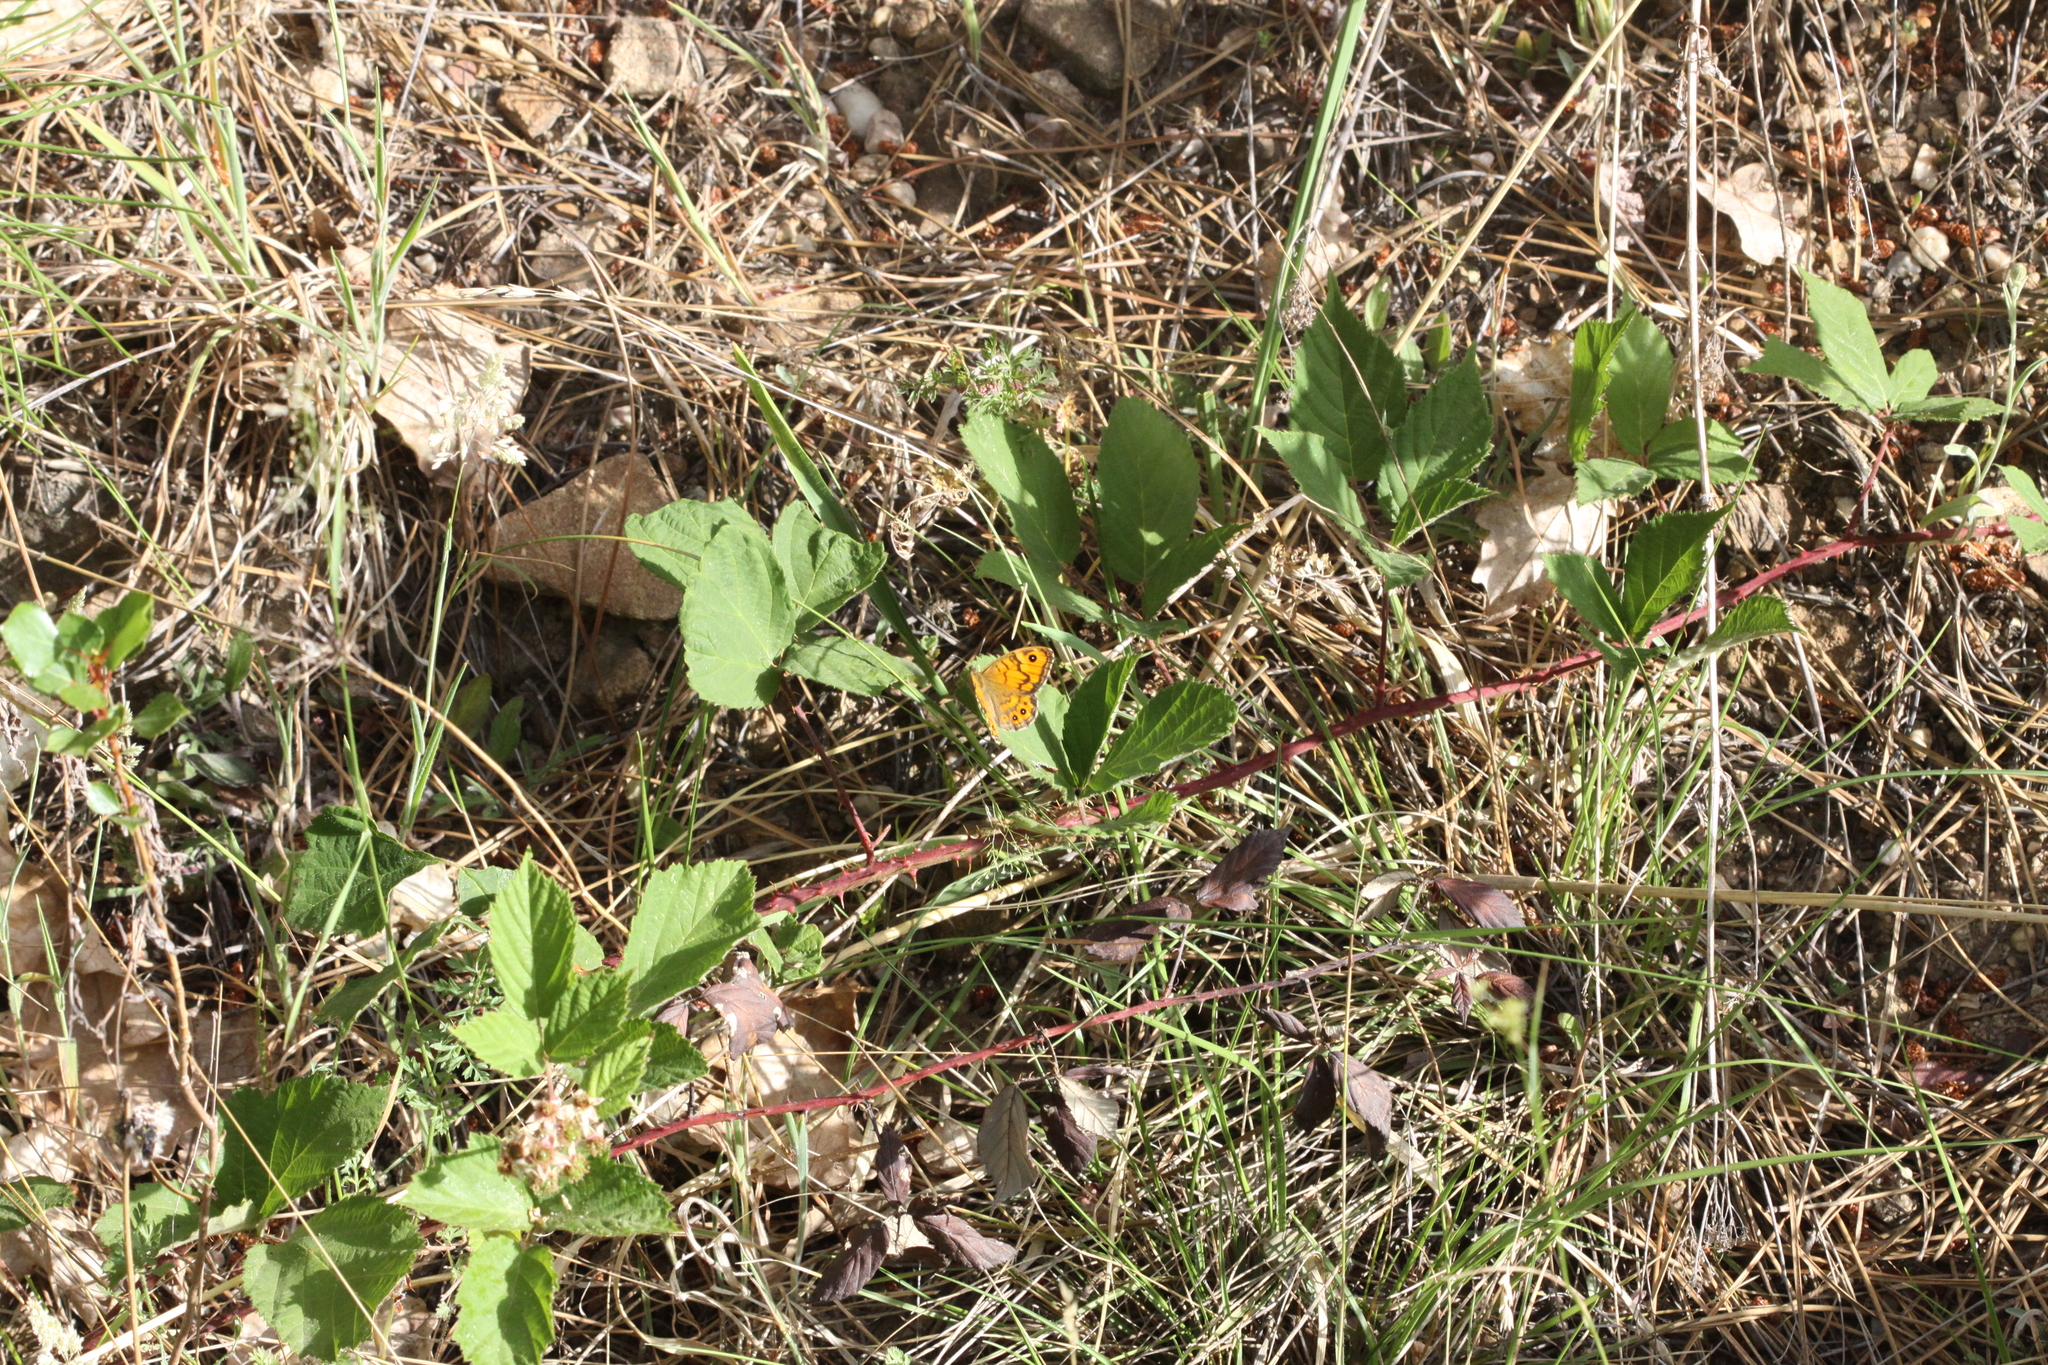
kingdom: Animalia
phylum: Arthropoda
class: Insecta
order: Lepidoptera
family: Nymphalidae
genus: Pararge
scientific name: Pararge Lasiommata megera
